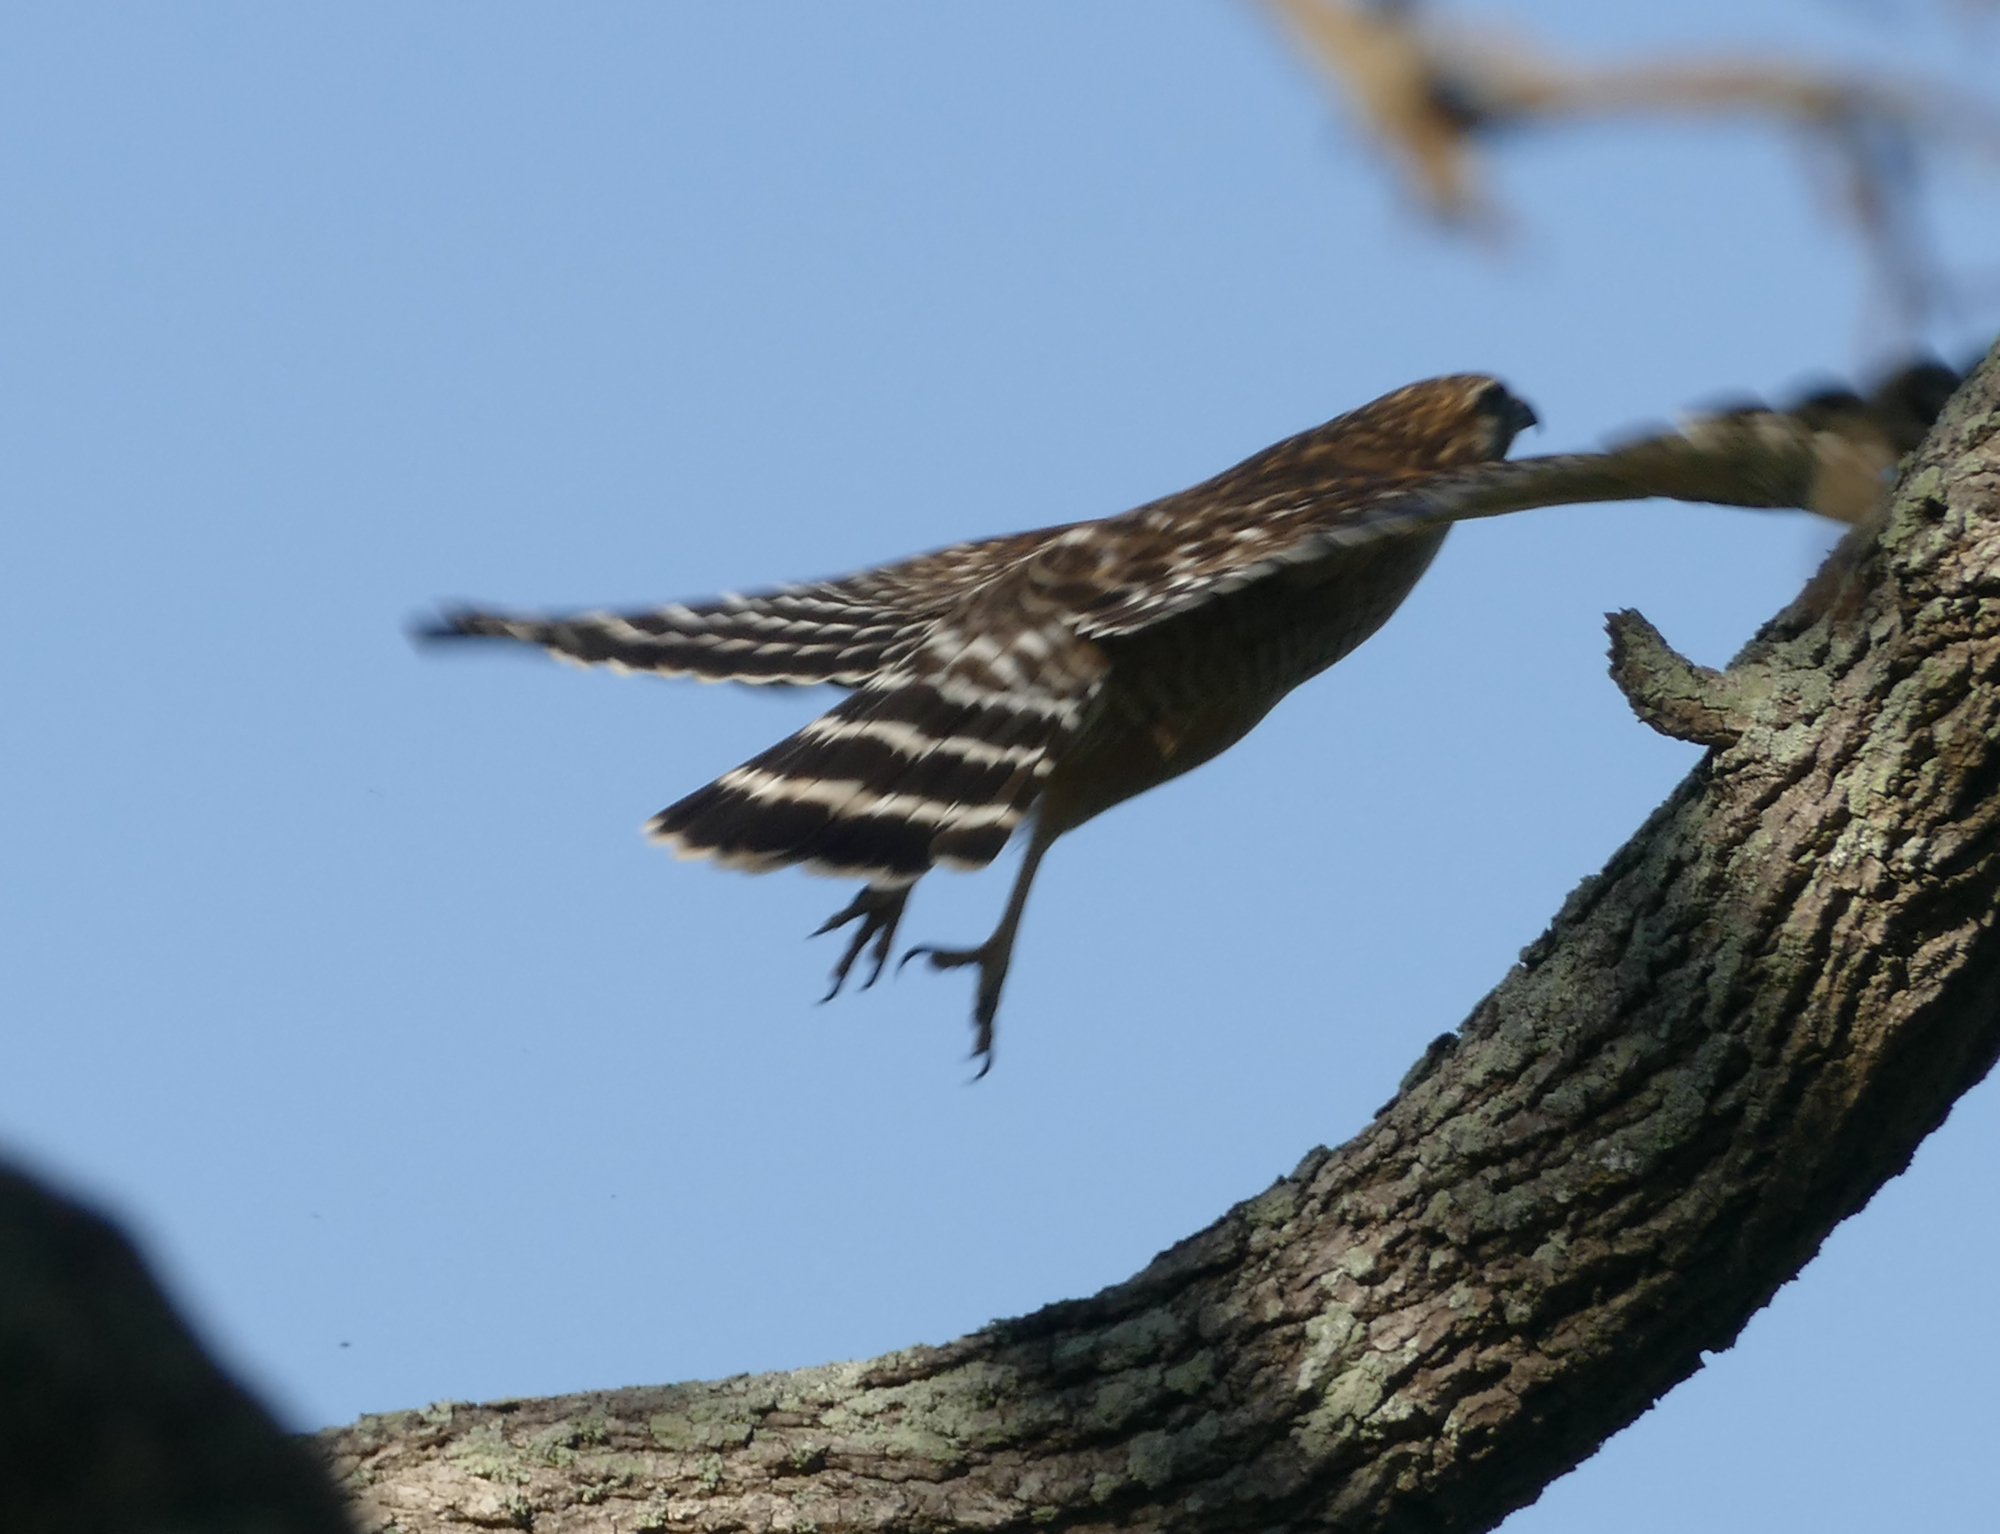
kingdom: Animalia
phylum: Chordata
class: Aves
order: Accipitriformes
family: Accipitridae
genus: Buteo
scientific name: Buteo lineatus
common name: Red-shouldered hawk
